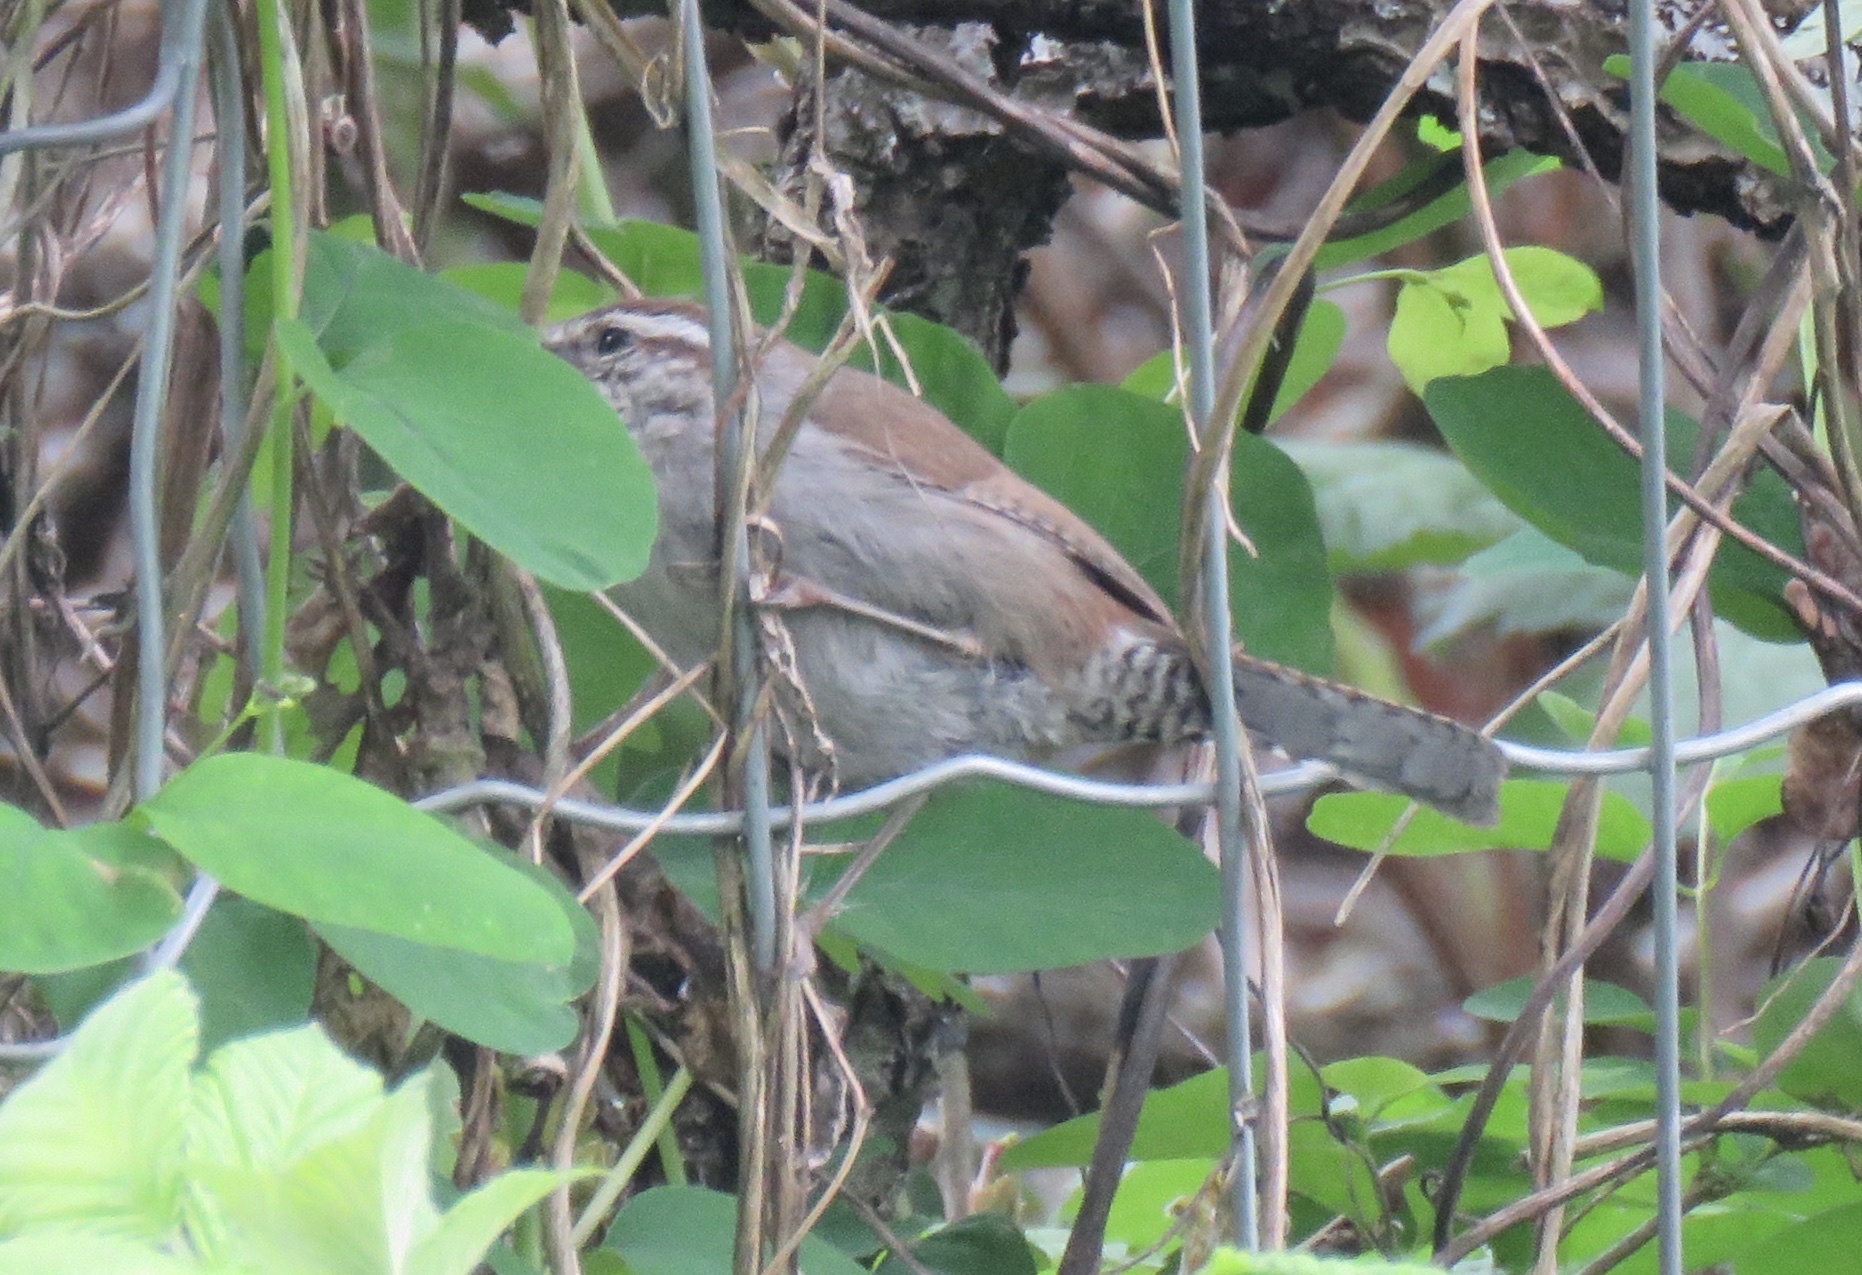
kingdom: Animalia
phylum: Chordata
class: Aves
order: Passeriformes
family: Troglodytidae
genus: Thryomanes
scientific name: Thryomanes bewickii
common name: Bewick's wren
